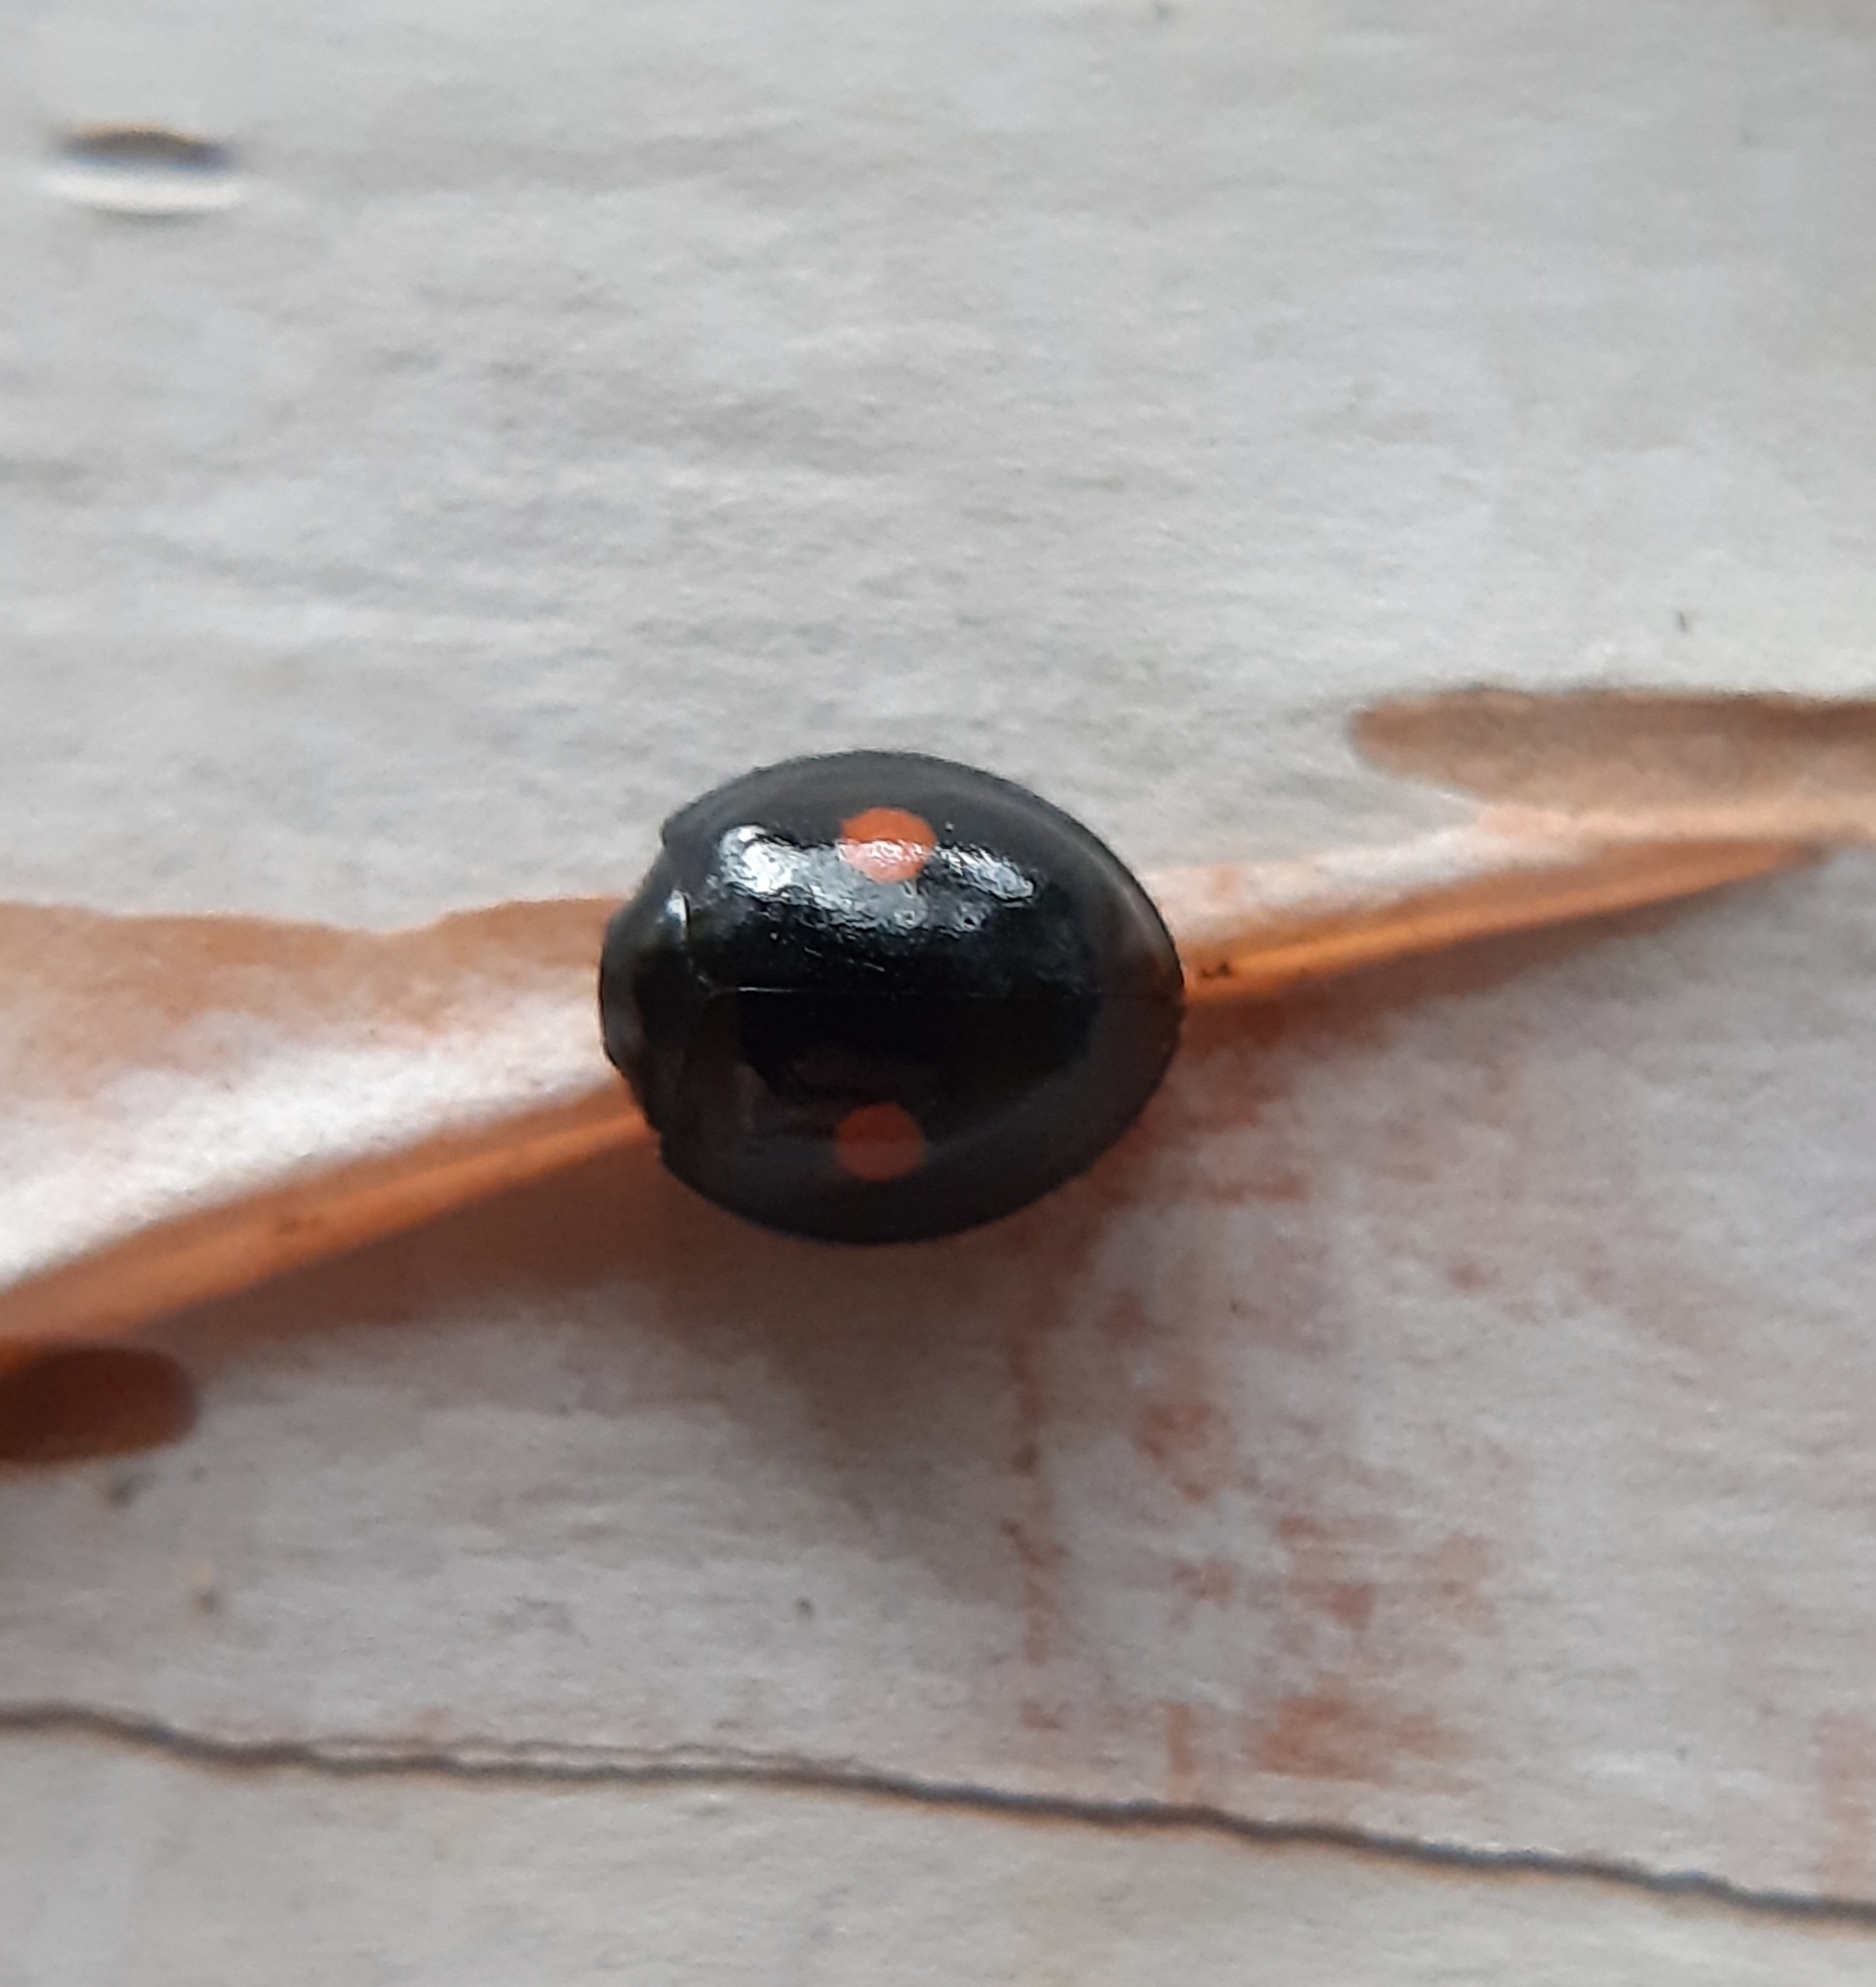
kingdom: Animalia
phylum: Arthropoda
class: Insecta
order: Coleoptera
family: Coccinellidae
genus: Chilocorus
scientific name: Chilocorus stigma
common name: Twicestabbed lady beetle
